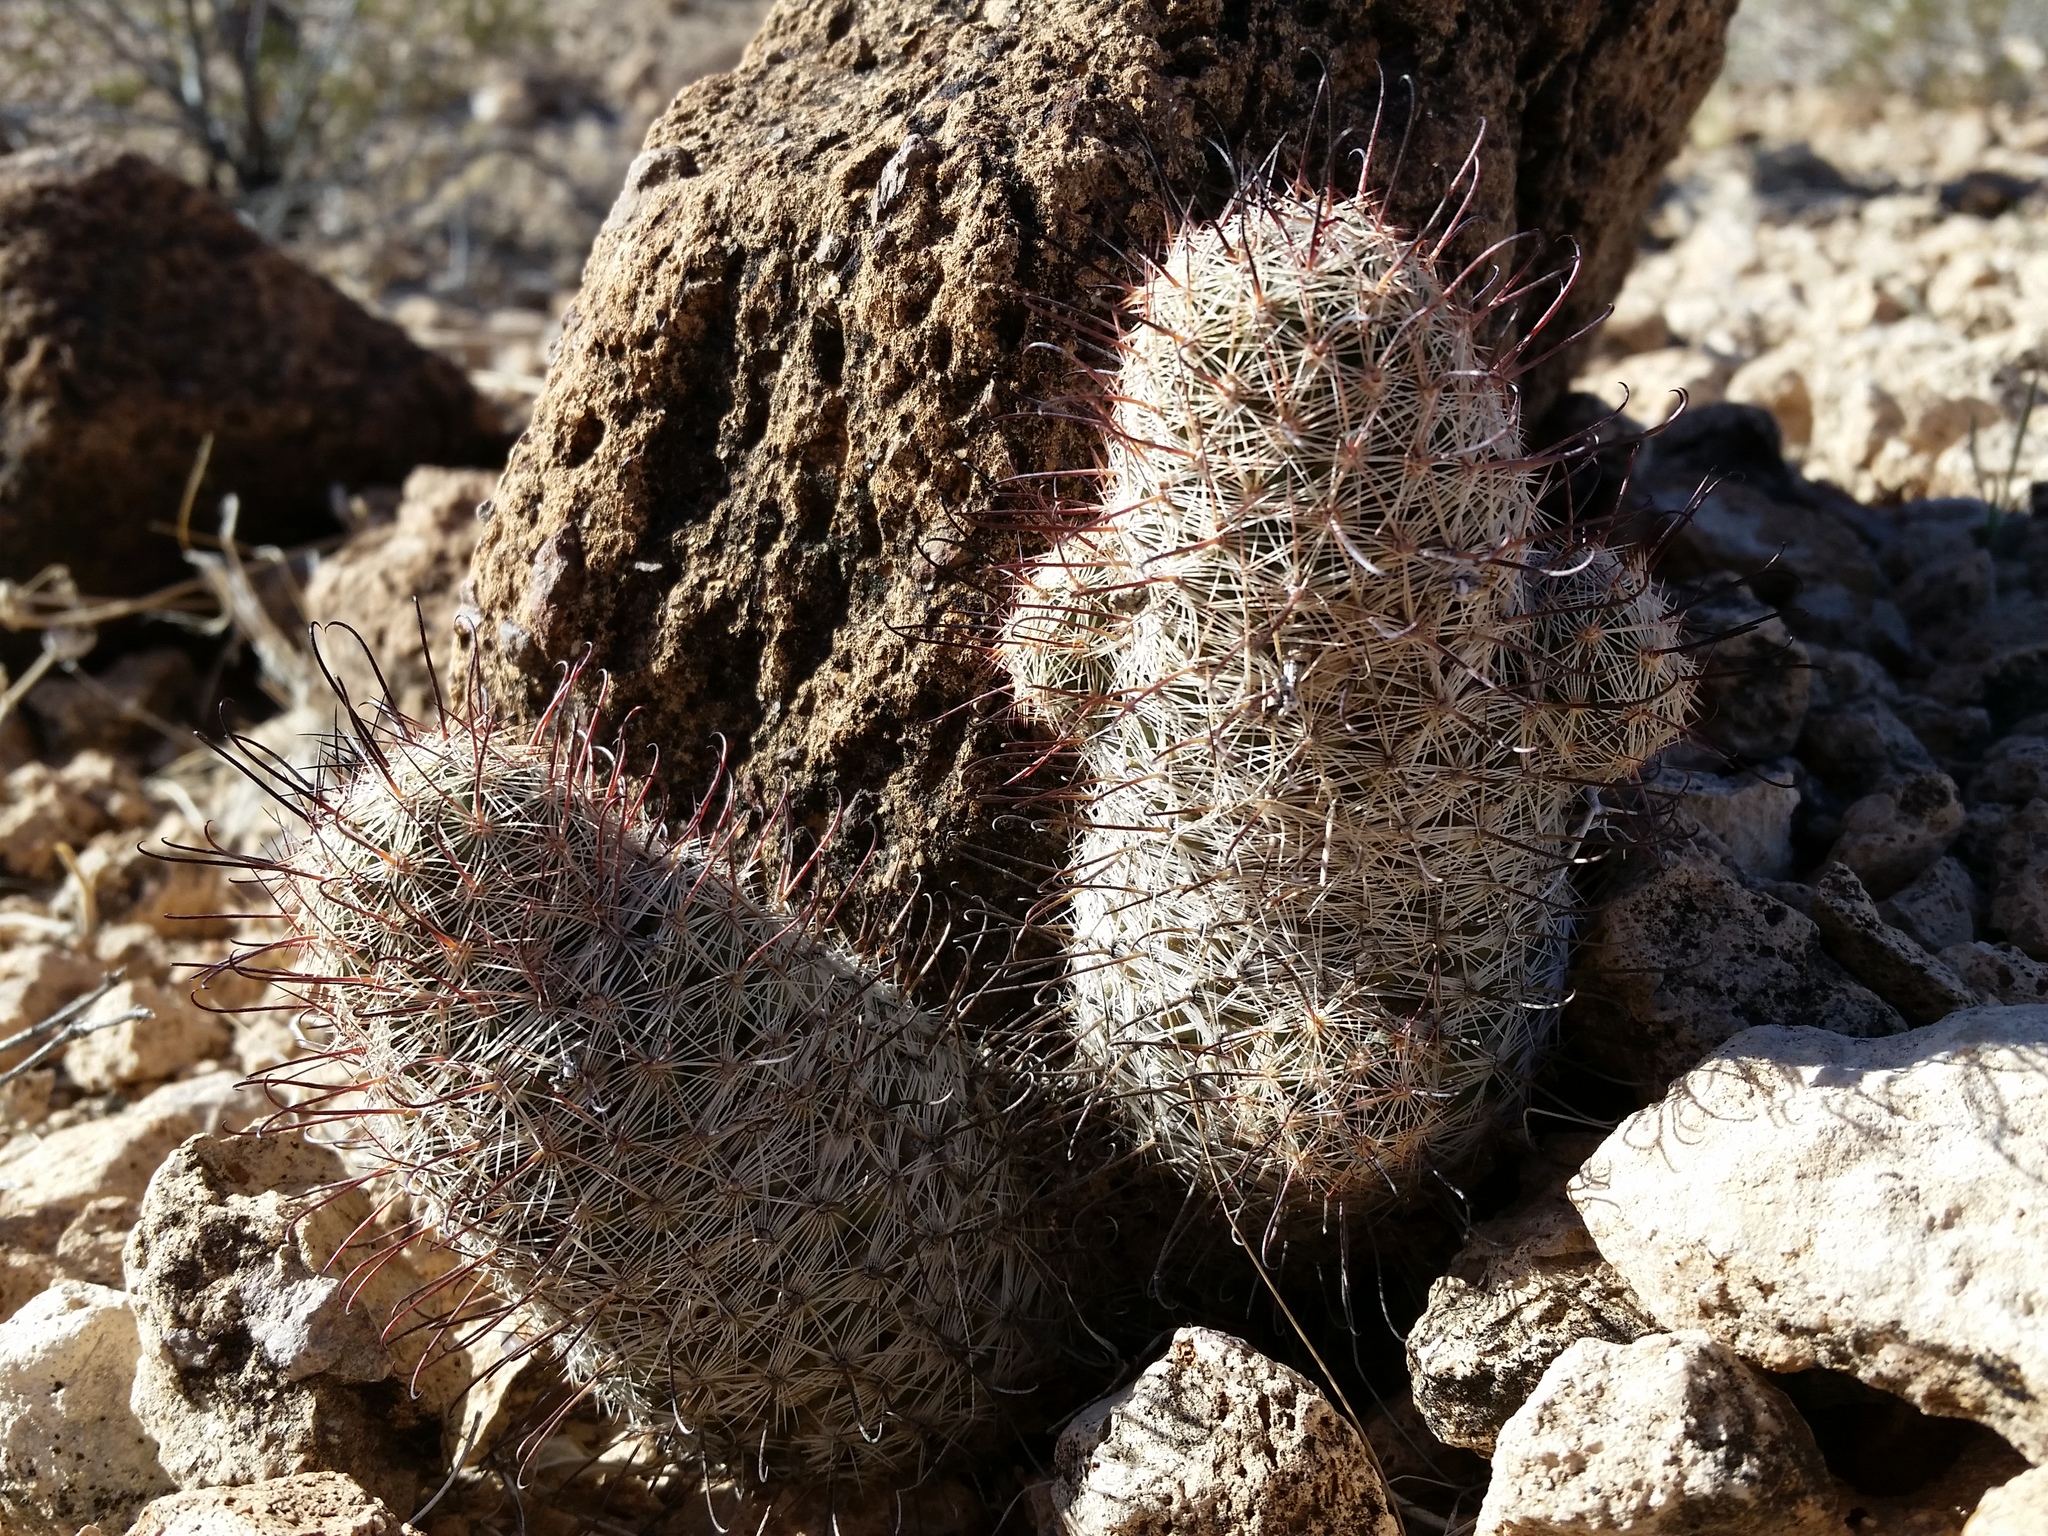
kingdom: Plantae
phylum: Tracheophyta
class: Magnoliopsida
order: Caryophyllales
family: Cactaceae
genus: Cochemiea
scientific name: Cochemiea grahamii
